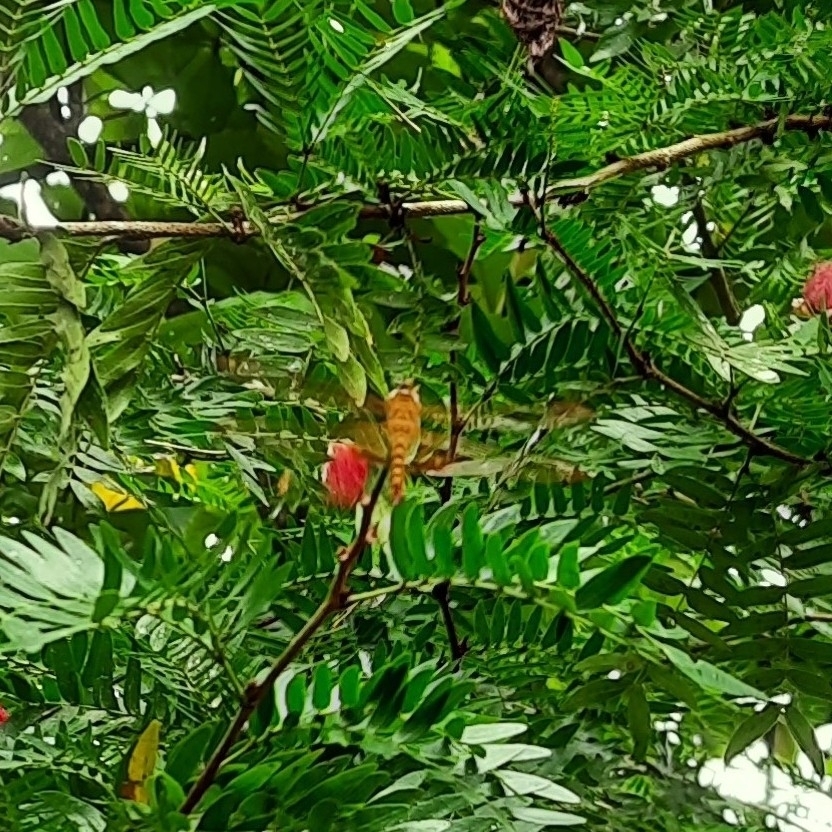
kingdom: Animalia
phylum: Arthropoda
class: Insecta
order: Odonata
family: Libellulidae
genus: Hydrobasileus
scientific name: Hydrobasileus croceus
